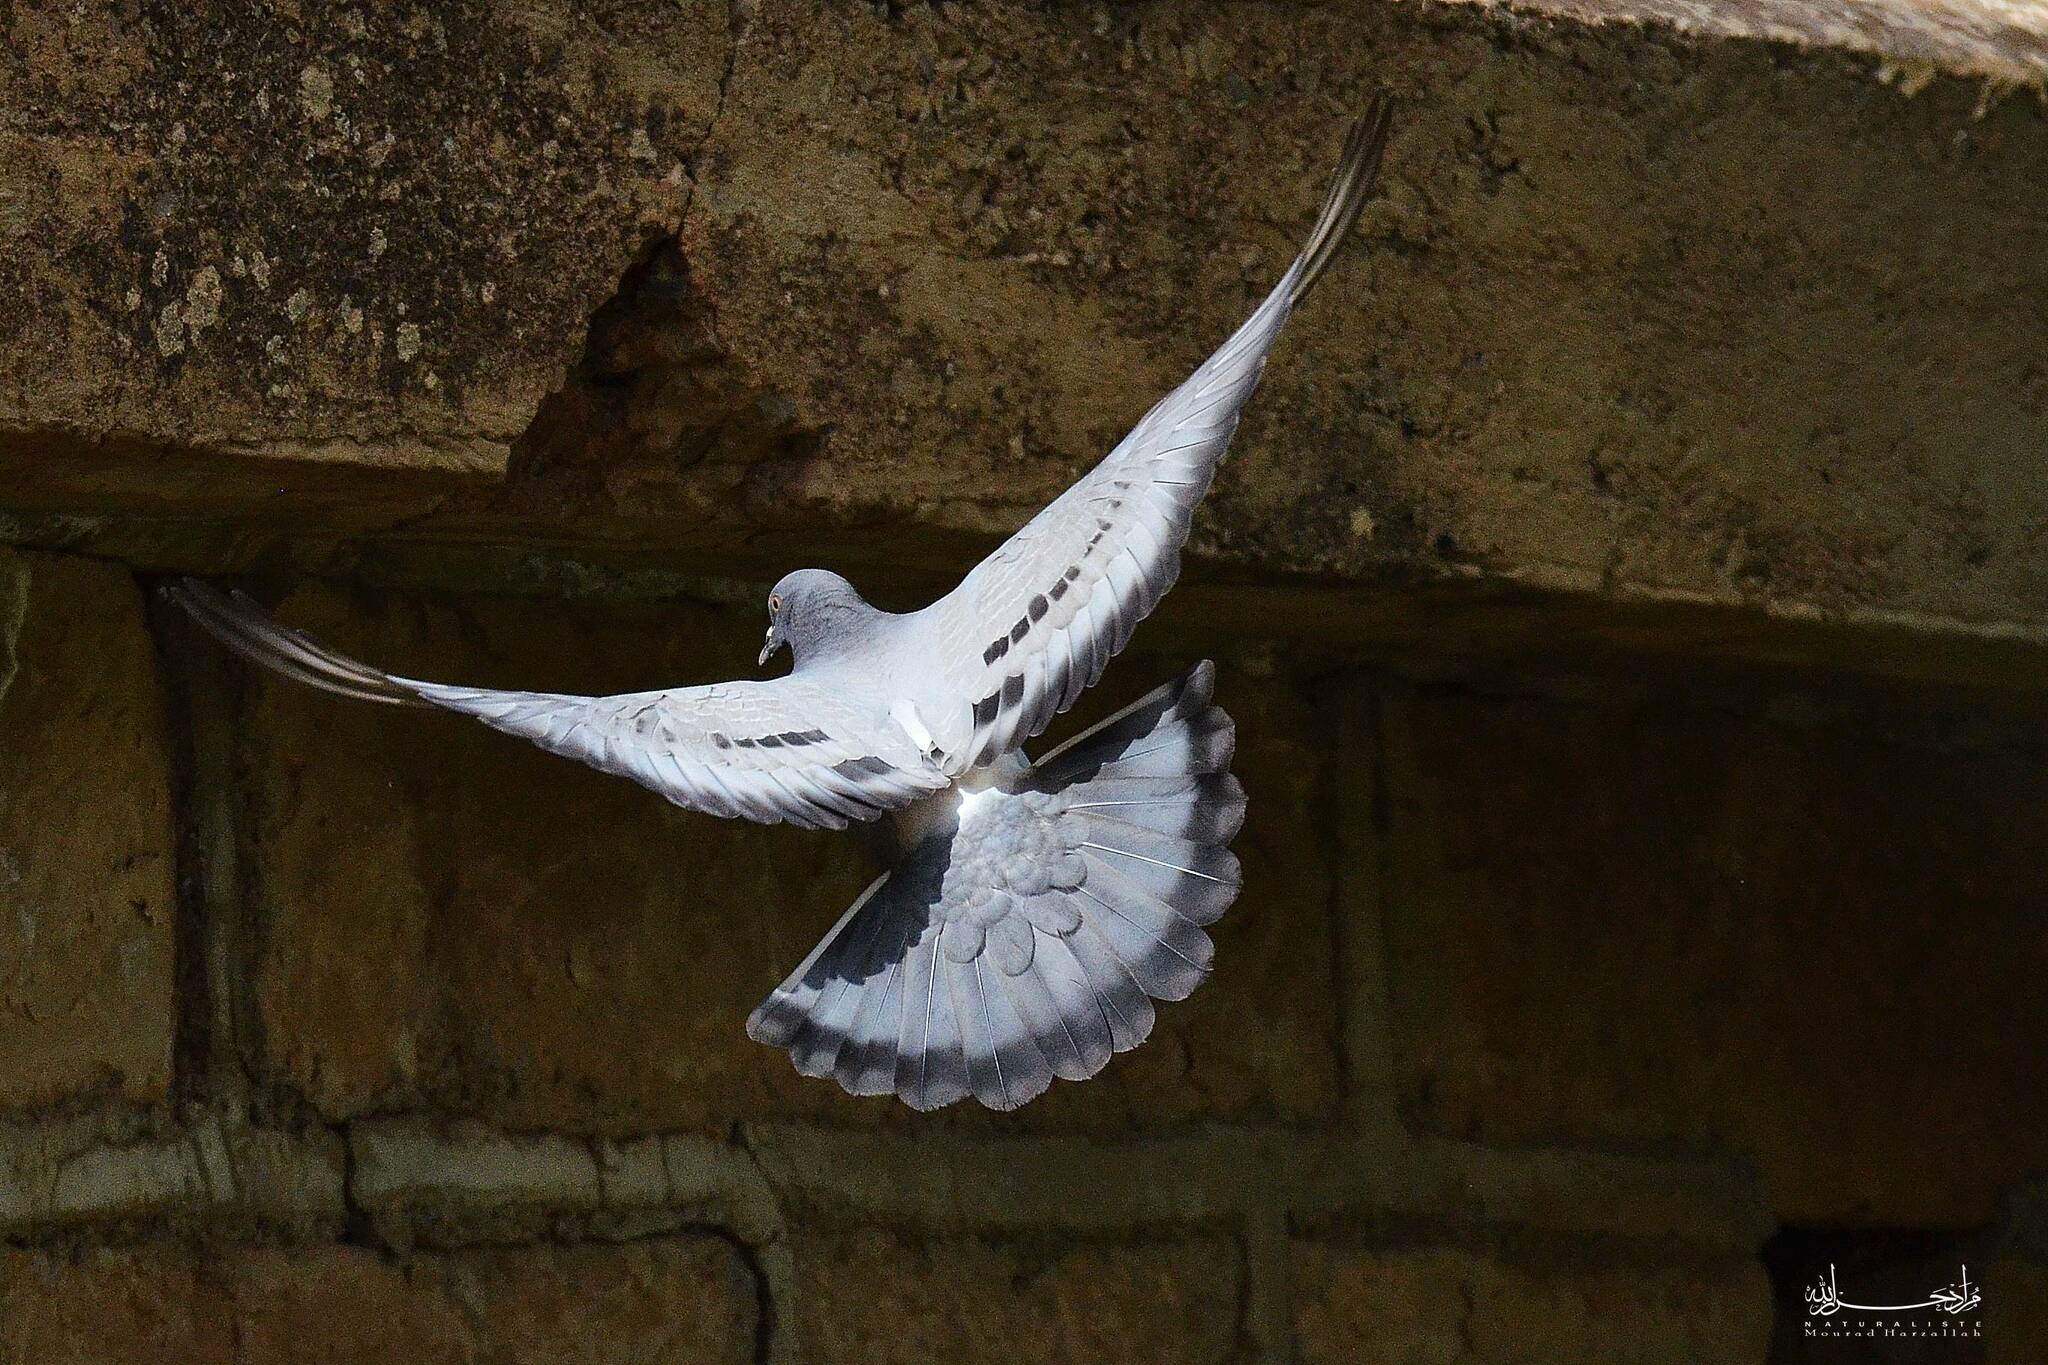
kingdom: Animalia
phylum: Chordata
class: Aves
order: Columbiformes
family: Columbidae
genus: Columba
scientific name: Columba livia
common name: Rock pigeon
